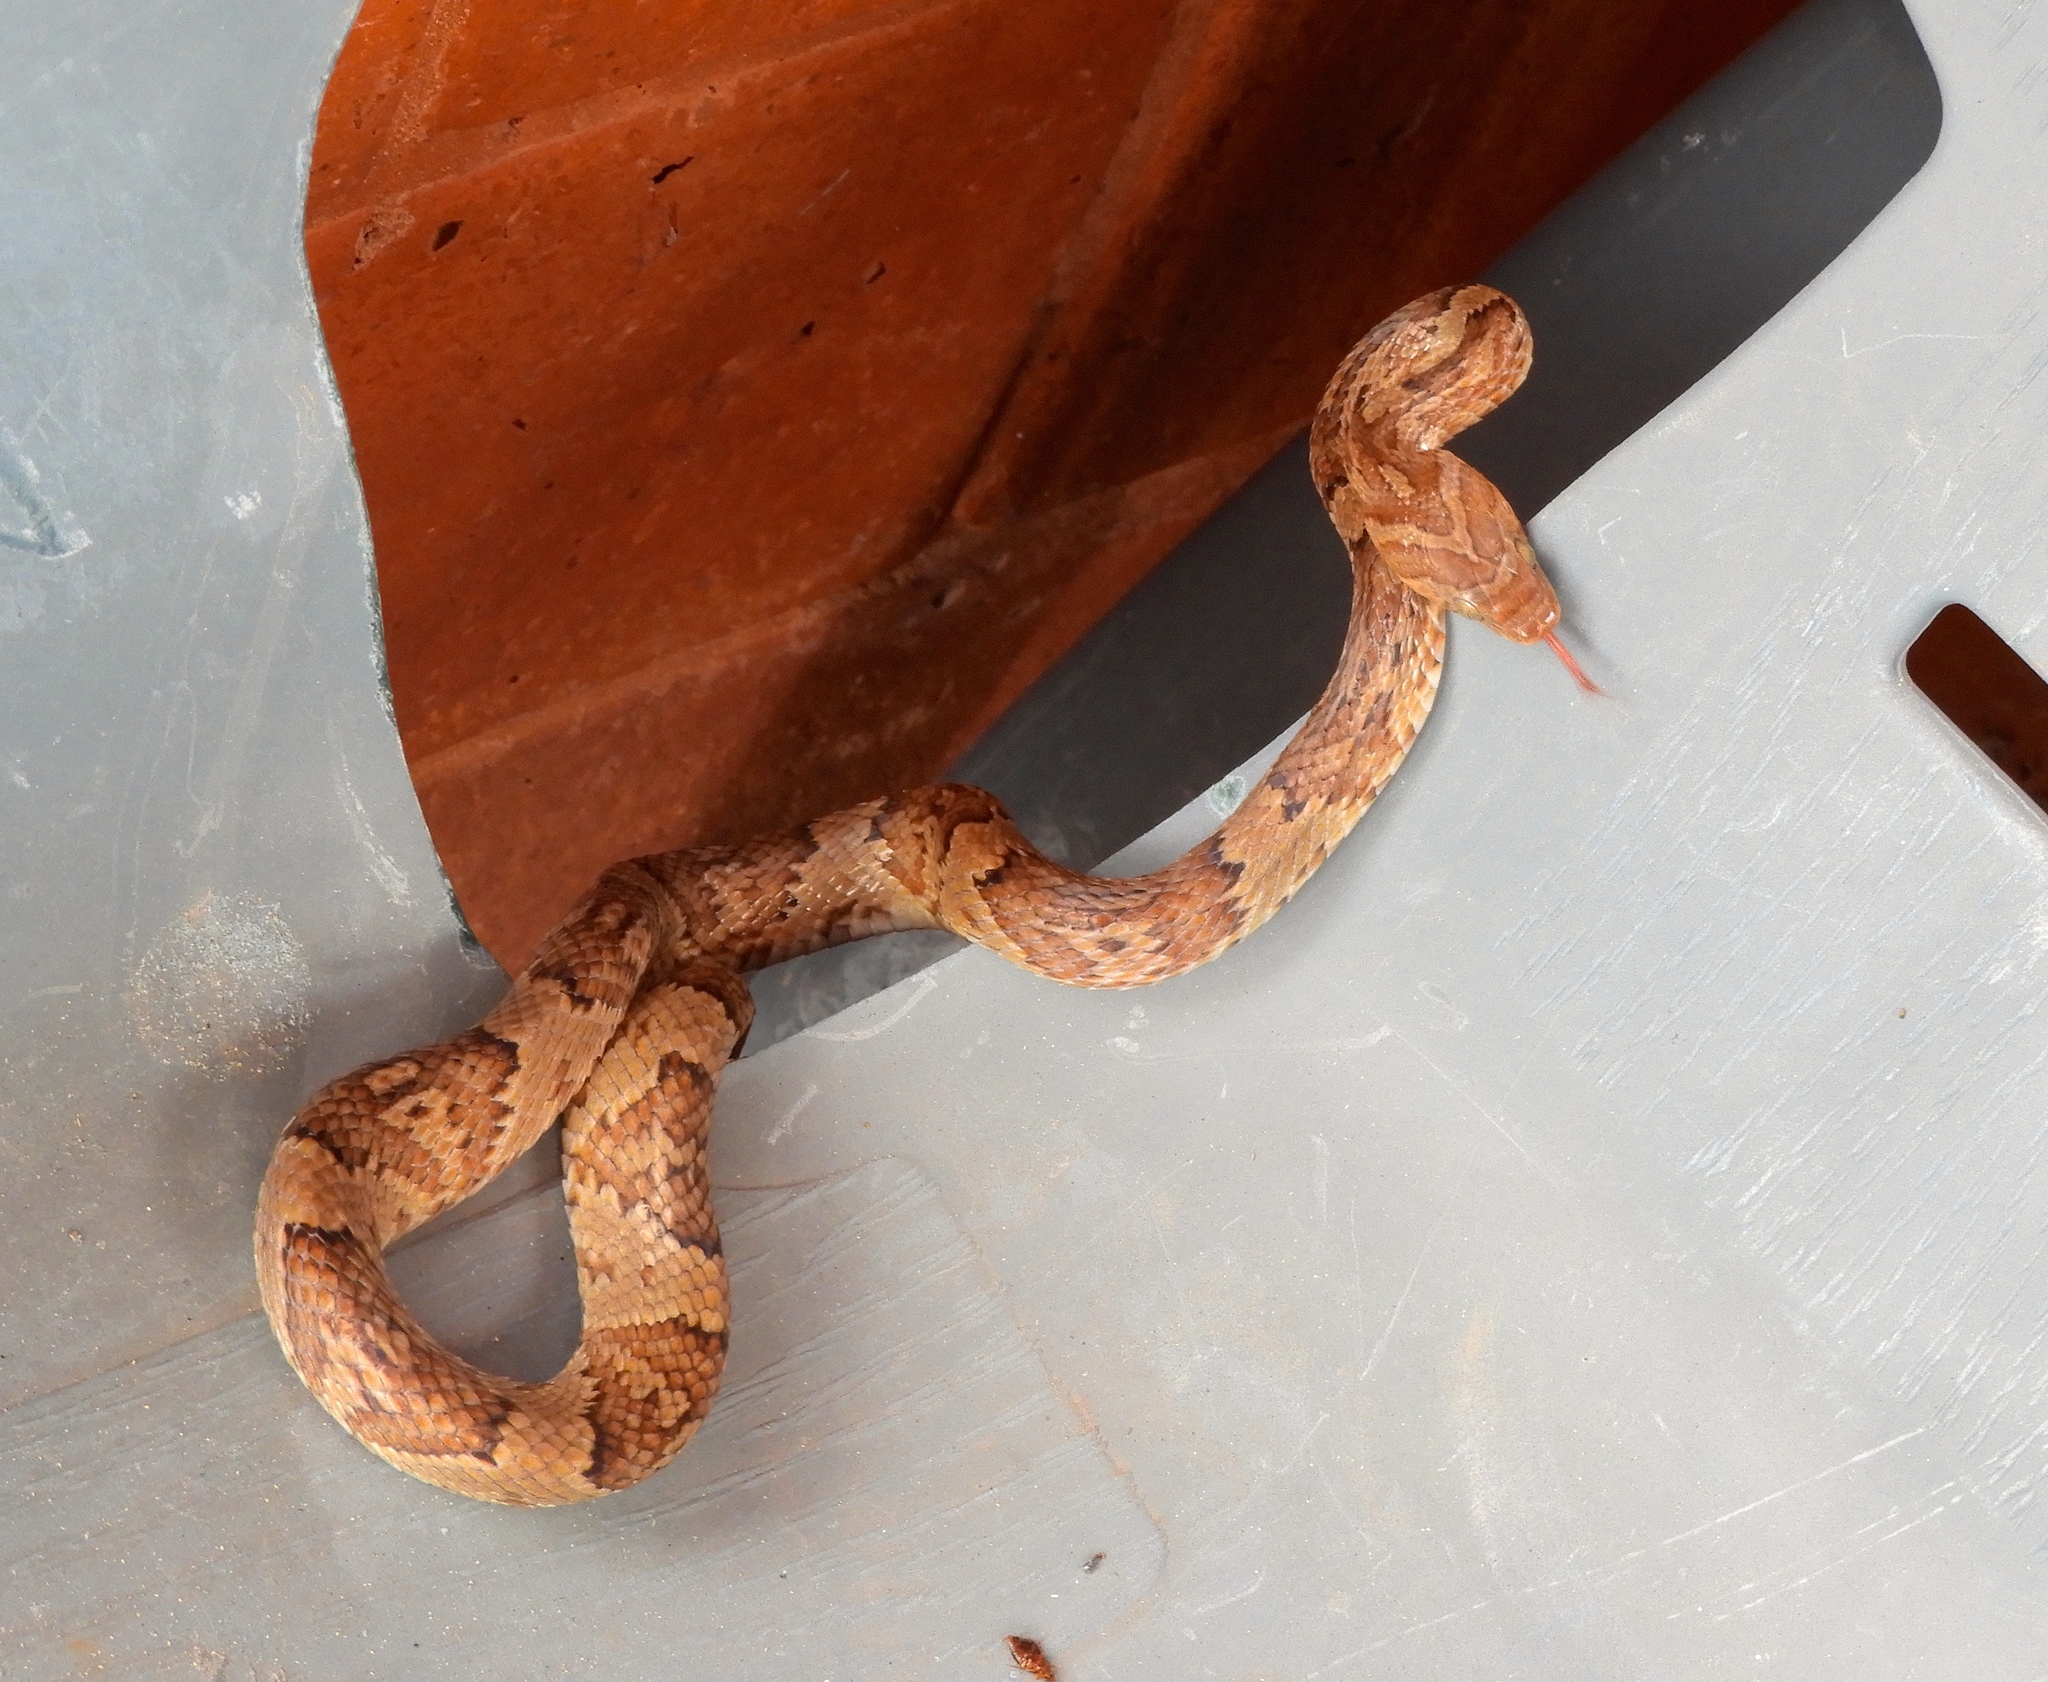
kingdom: Animalia
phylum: Chordata
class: Squamata
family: Colubridae
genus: Trimorphodon
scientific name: Trimorphodon paucimaculatus
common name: Sinaloan lyresnake
